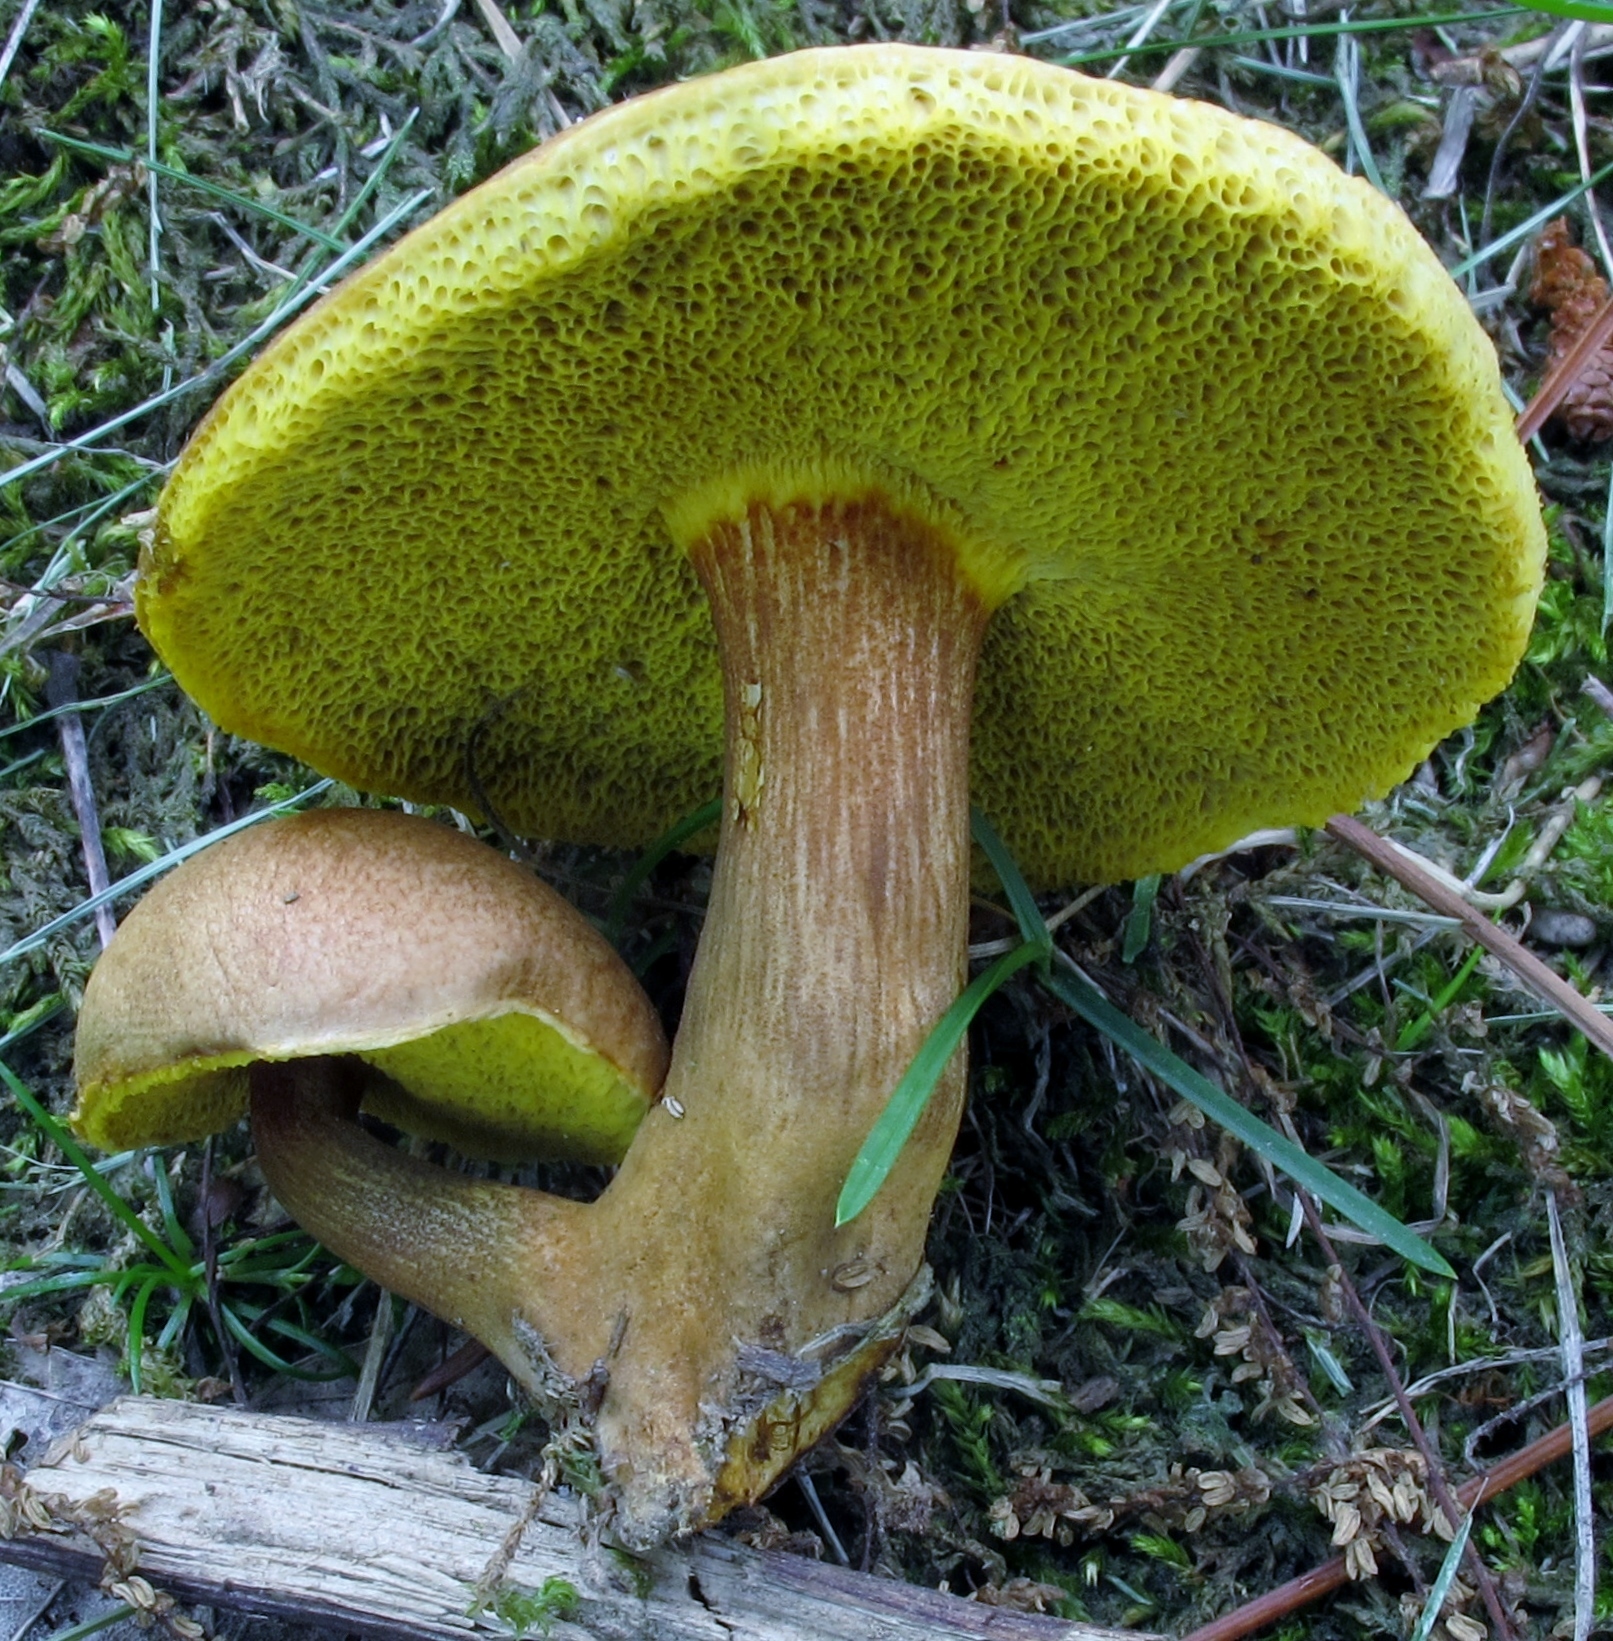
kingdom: Fungi
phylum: Basidiomycota
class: Agaricomycetes
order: Boletales
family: Boletaceae
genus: Aureoboletus
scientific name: Aureoboletus innixus
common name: Clustered brown bolete
